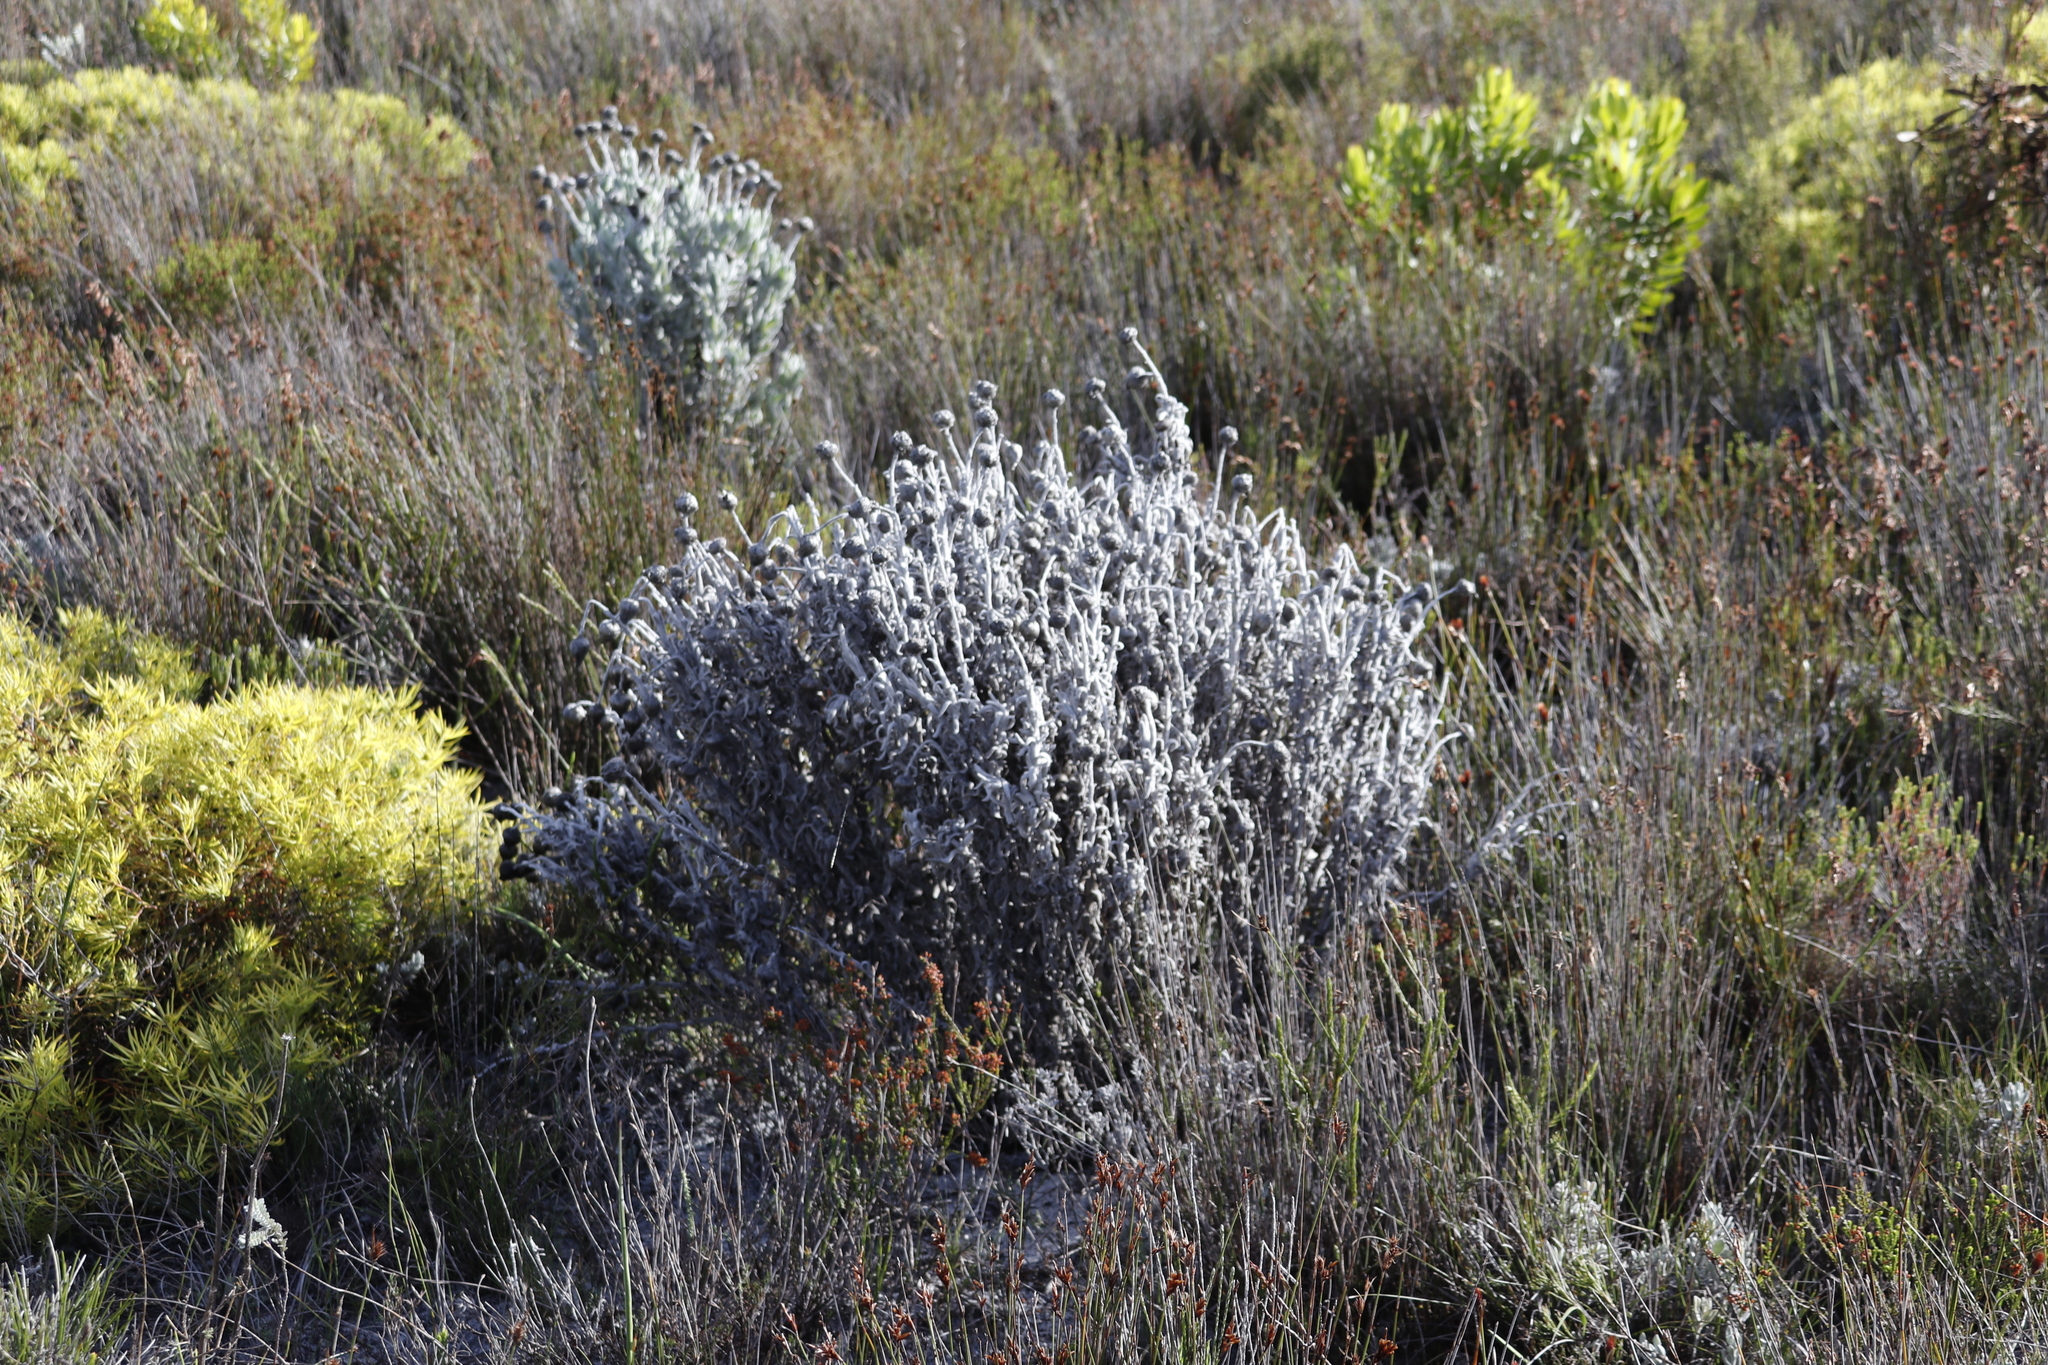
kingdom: Plantae
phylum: Tracheophyta
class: Magnoliopsida
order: Asterales
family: Asteraceae
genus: Syncarpha
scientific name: Syncarpha vestita
